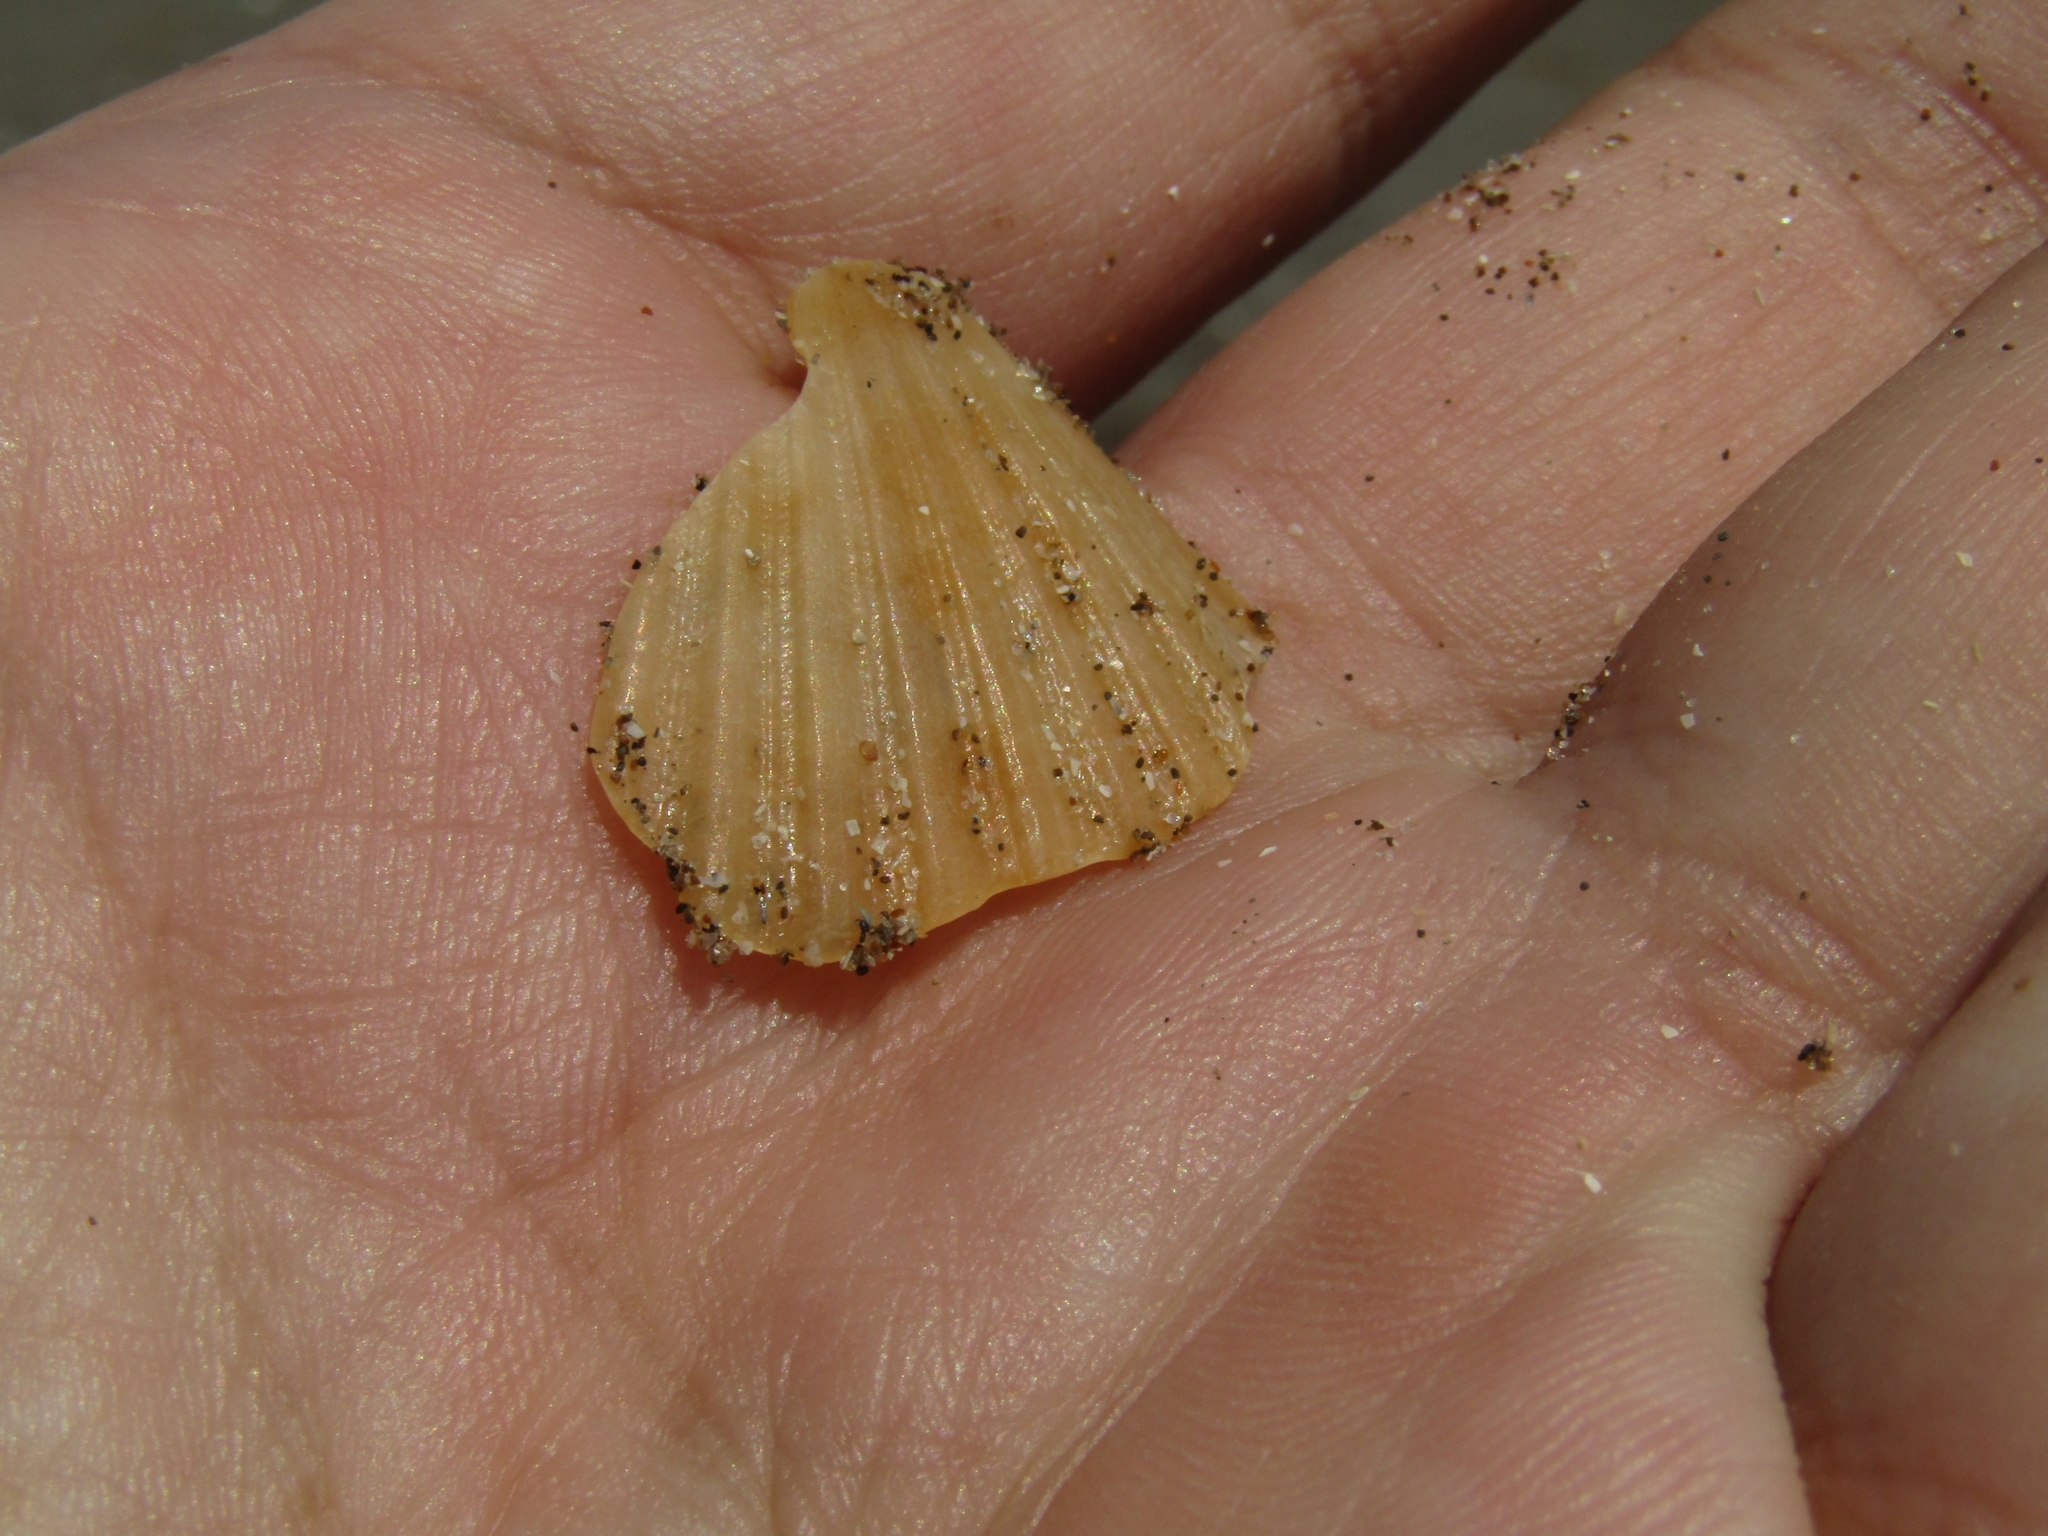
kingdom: Animalia
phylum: Mollusca
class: Bivalvia
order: Pectinida
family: Pectinidae
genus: Aequipecten
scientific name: Aequipecten tehuelchus
